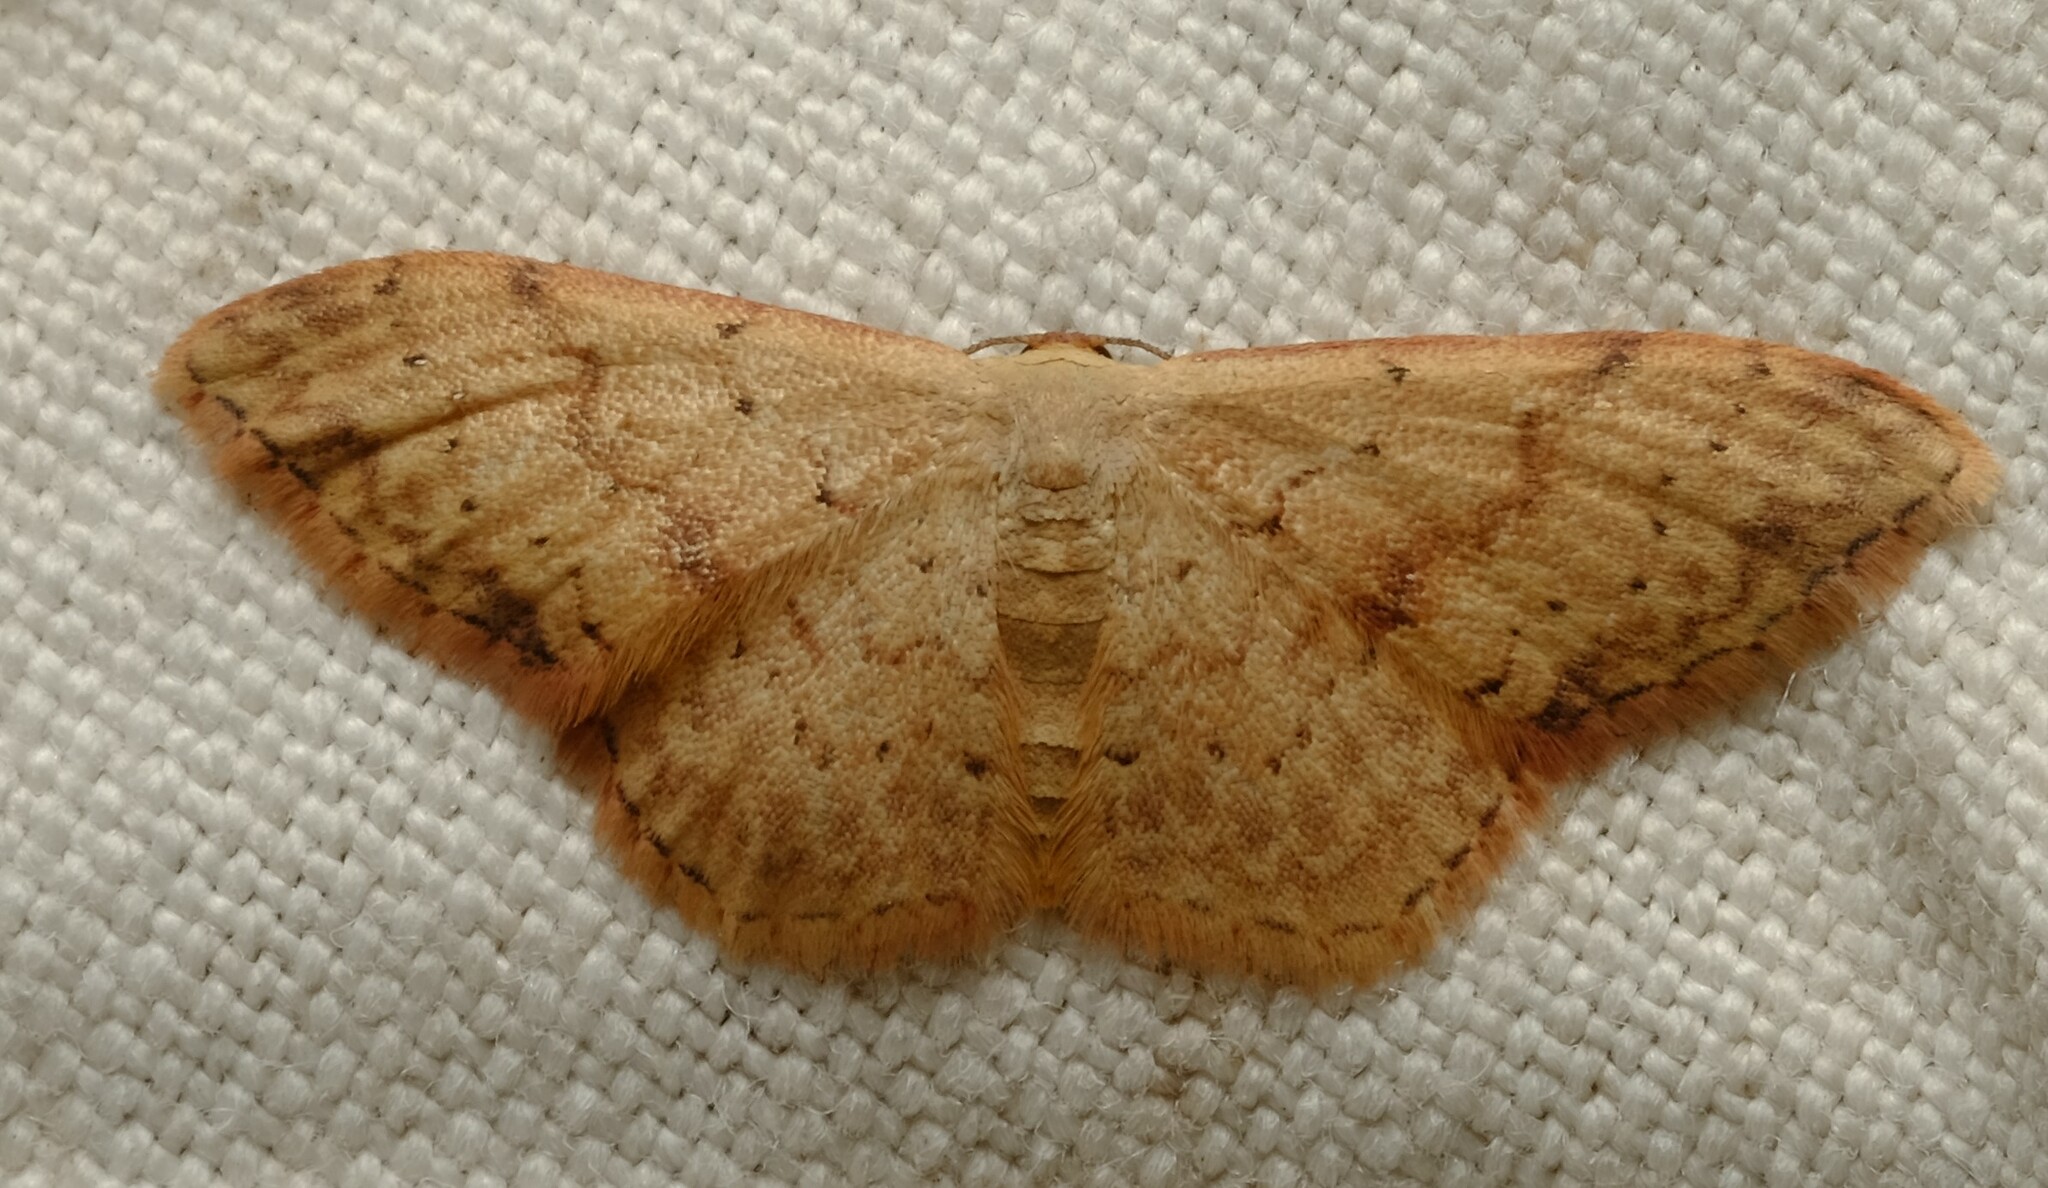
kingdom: Animalia
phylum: Arthropoda
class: Insecta
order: Lepidoptera
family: Geometridae
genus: Idaea
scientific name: Idaea halmaea
